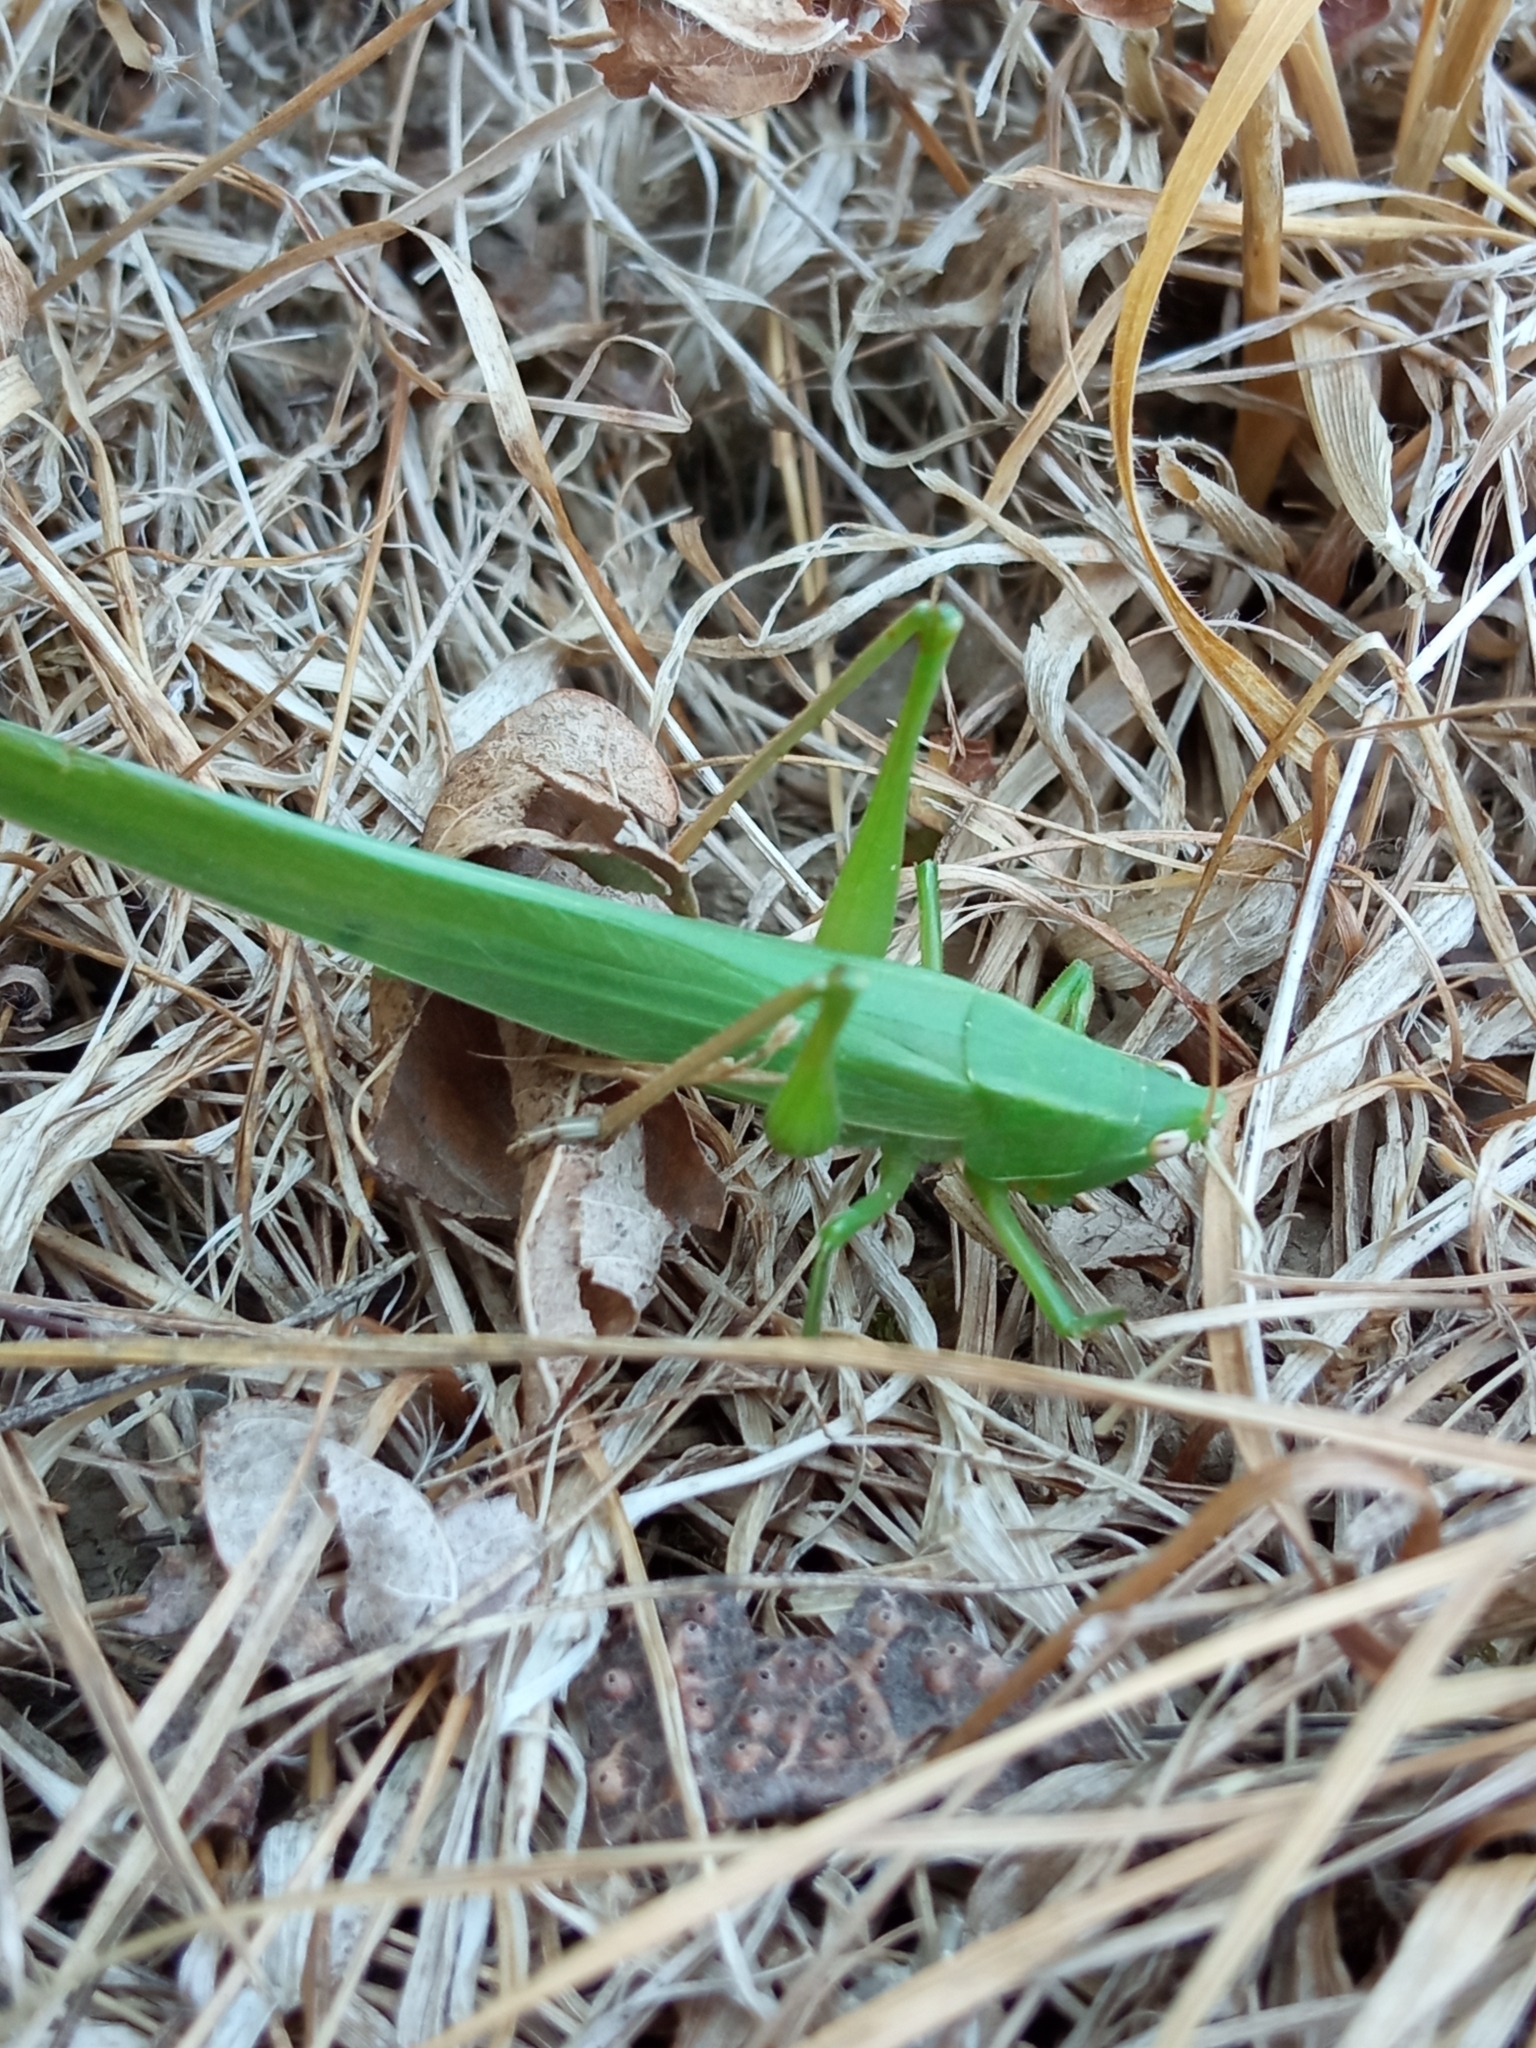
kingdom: Animalia
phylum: Arthropoda
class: Insecta
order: Orthoptera
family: Tettigoniidae
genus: Ruspolia
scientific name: Ruspolia nitidula
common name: Large conehead
